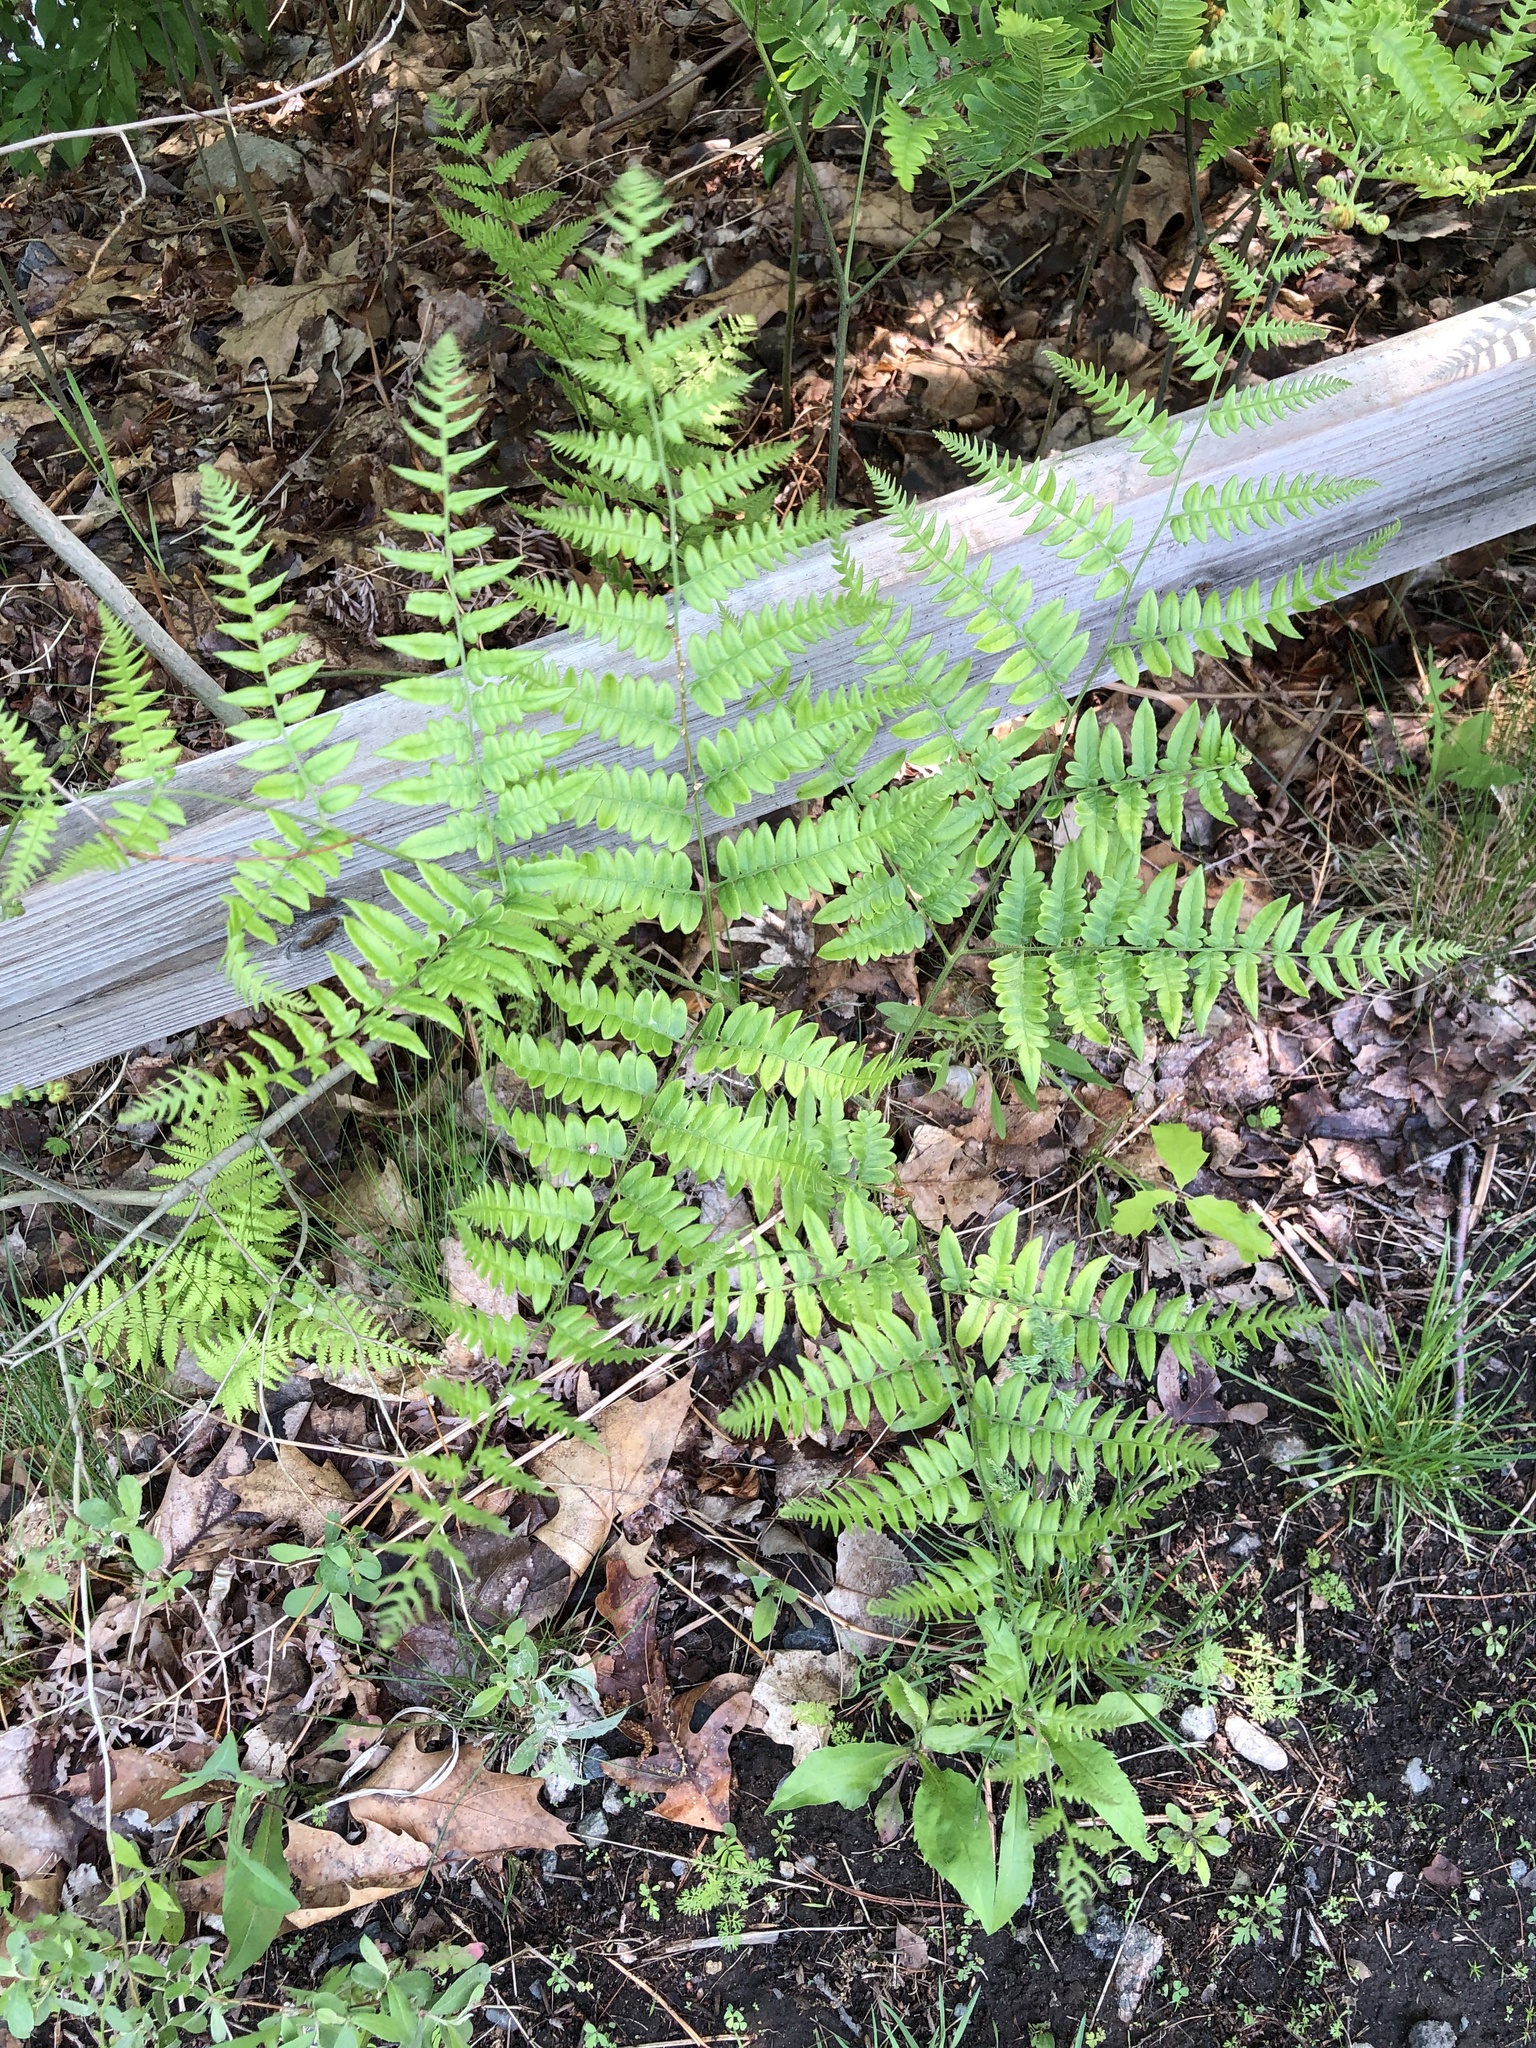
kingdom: Plantae
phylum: Tracheophyta
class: Polypodiopsida
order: Polypodiales
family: Dennstaedtiaceae
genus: Pteridium
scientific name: Pteridium aquilinum
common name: Bracken
